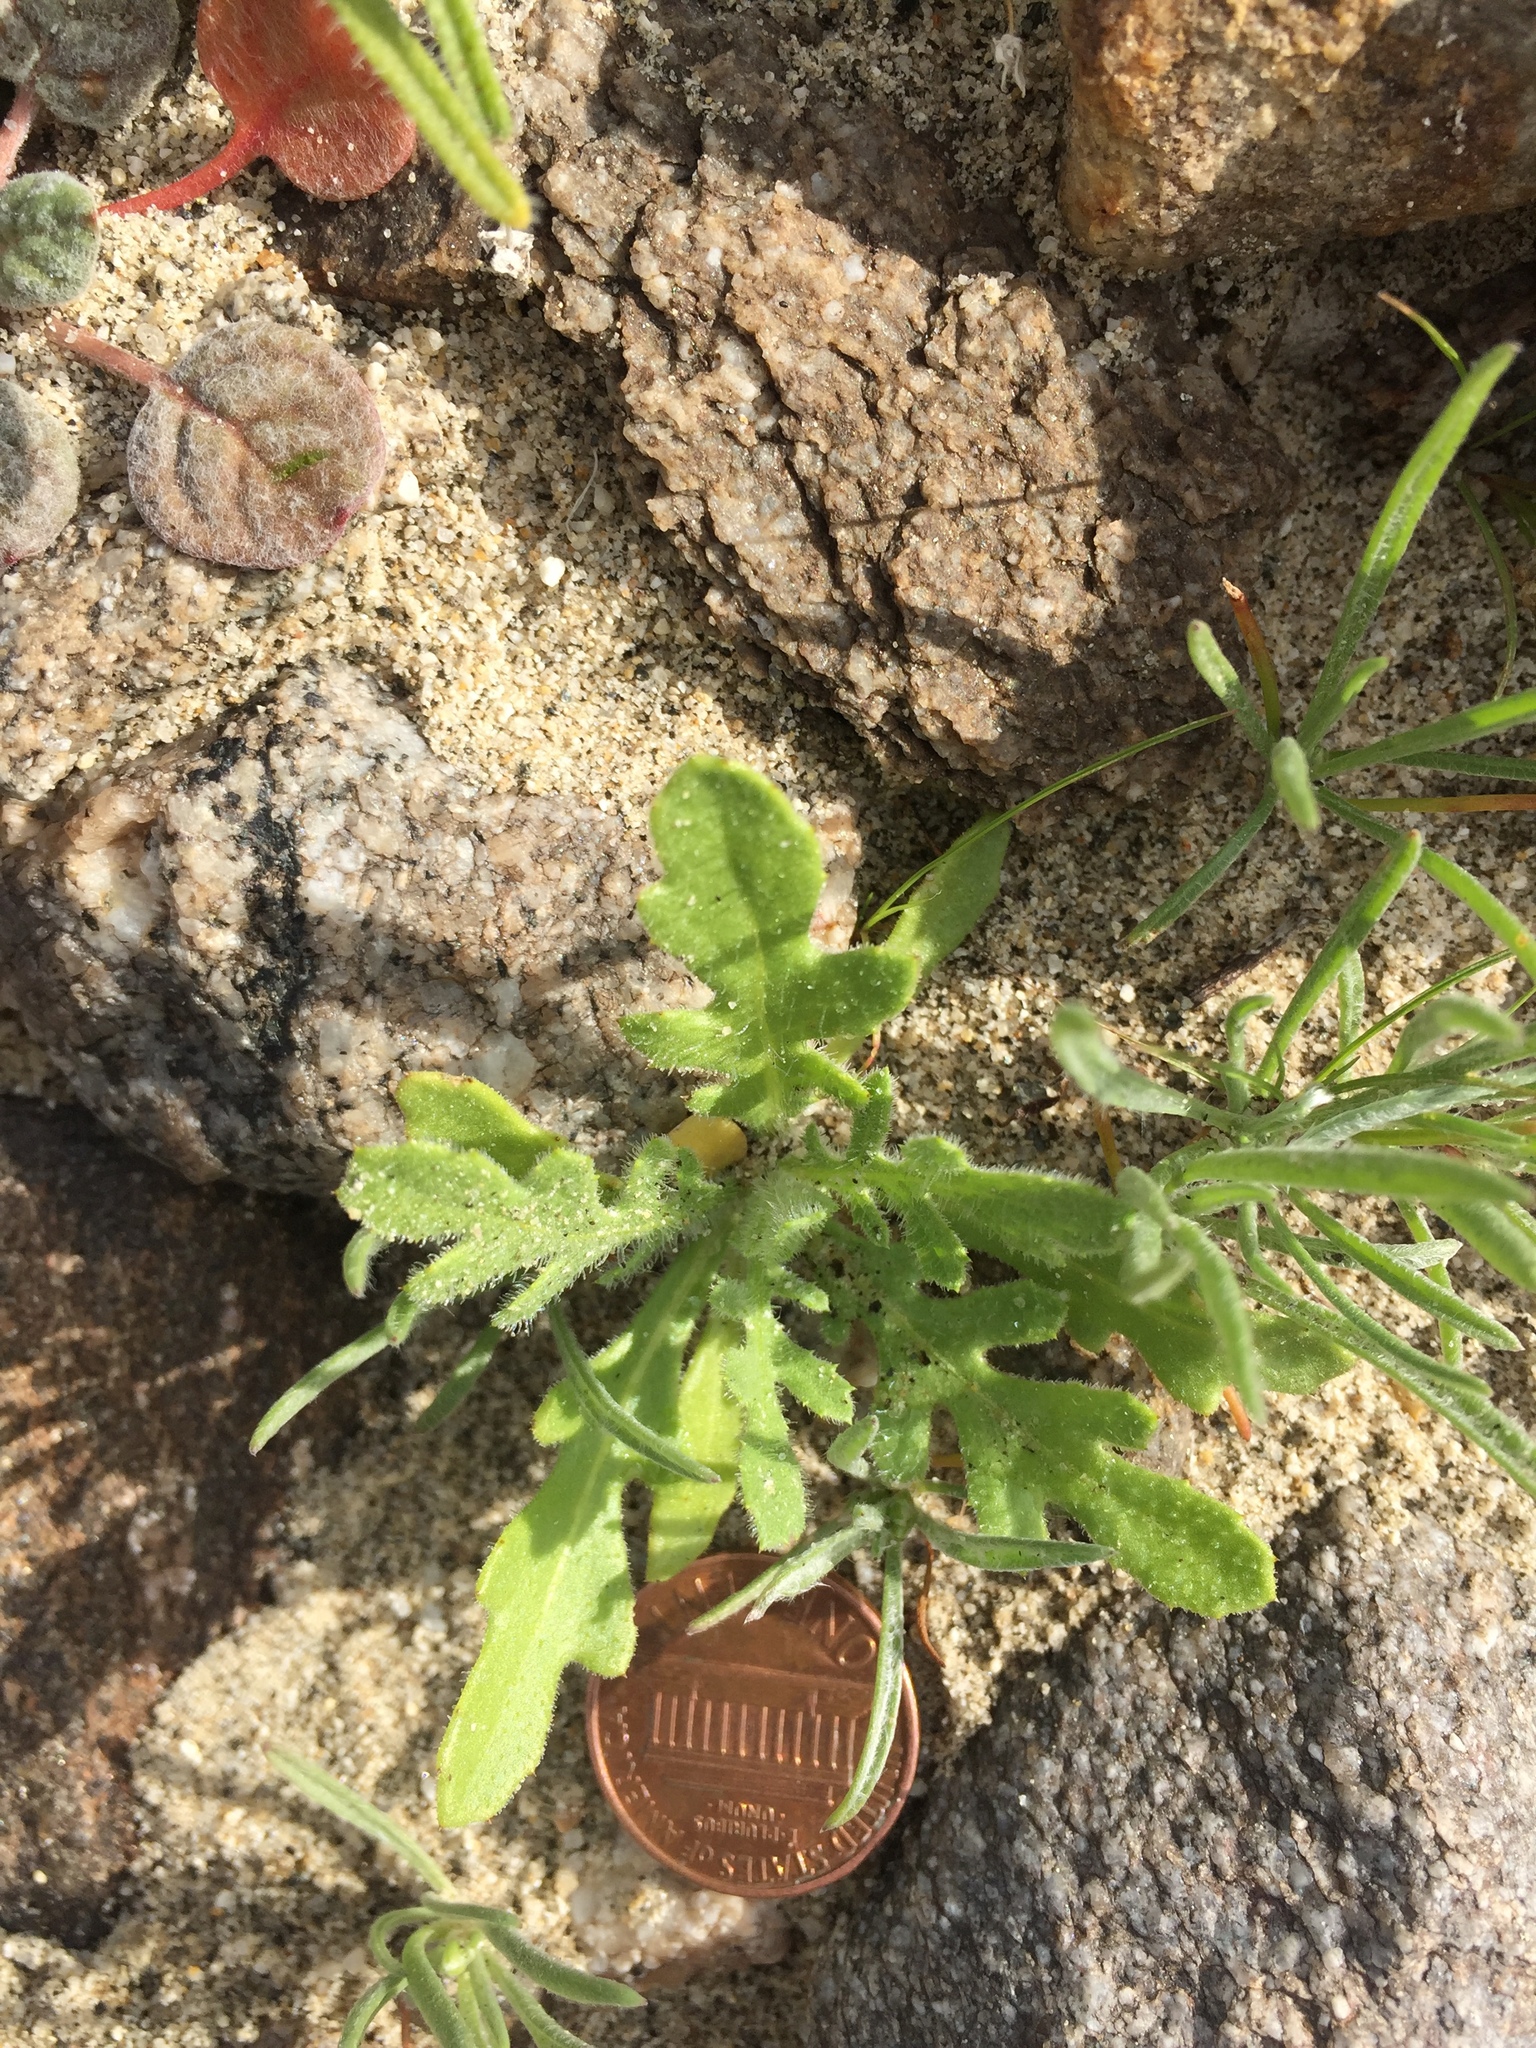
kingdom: Plantae
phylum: Tracheophyta
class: Magnoliopsida
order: Asterales
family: Asteraceae
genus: Volutaria
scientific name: Volutaria tubuliflora
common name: Desert knapweed
